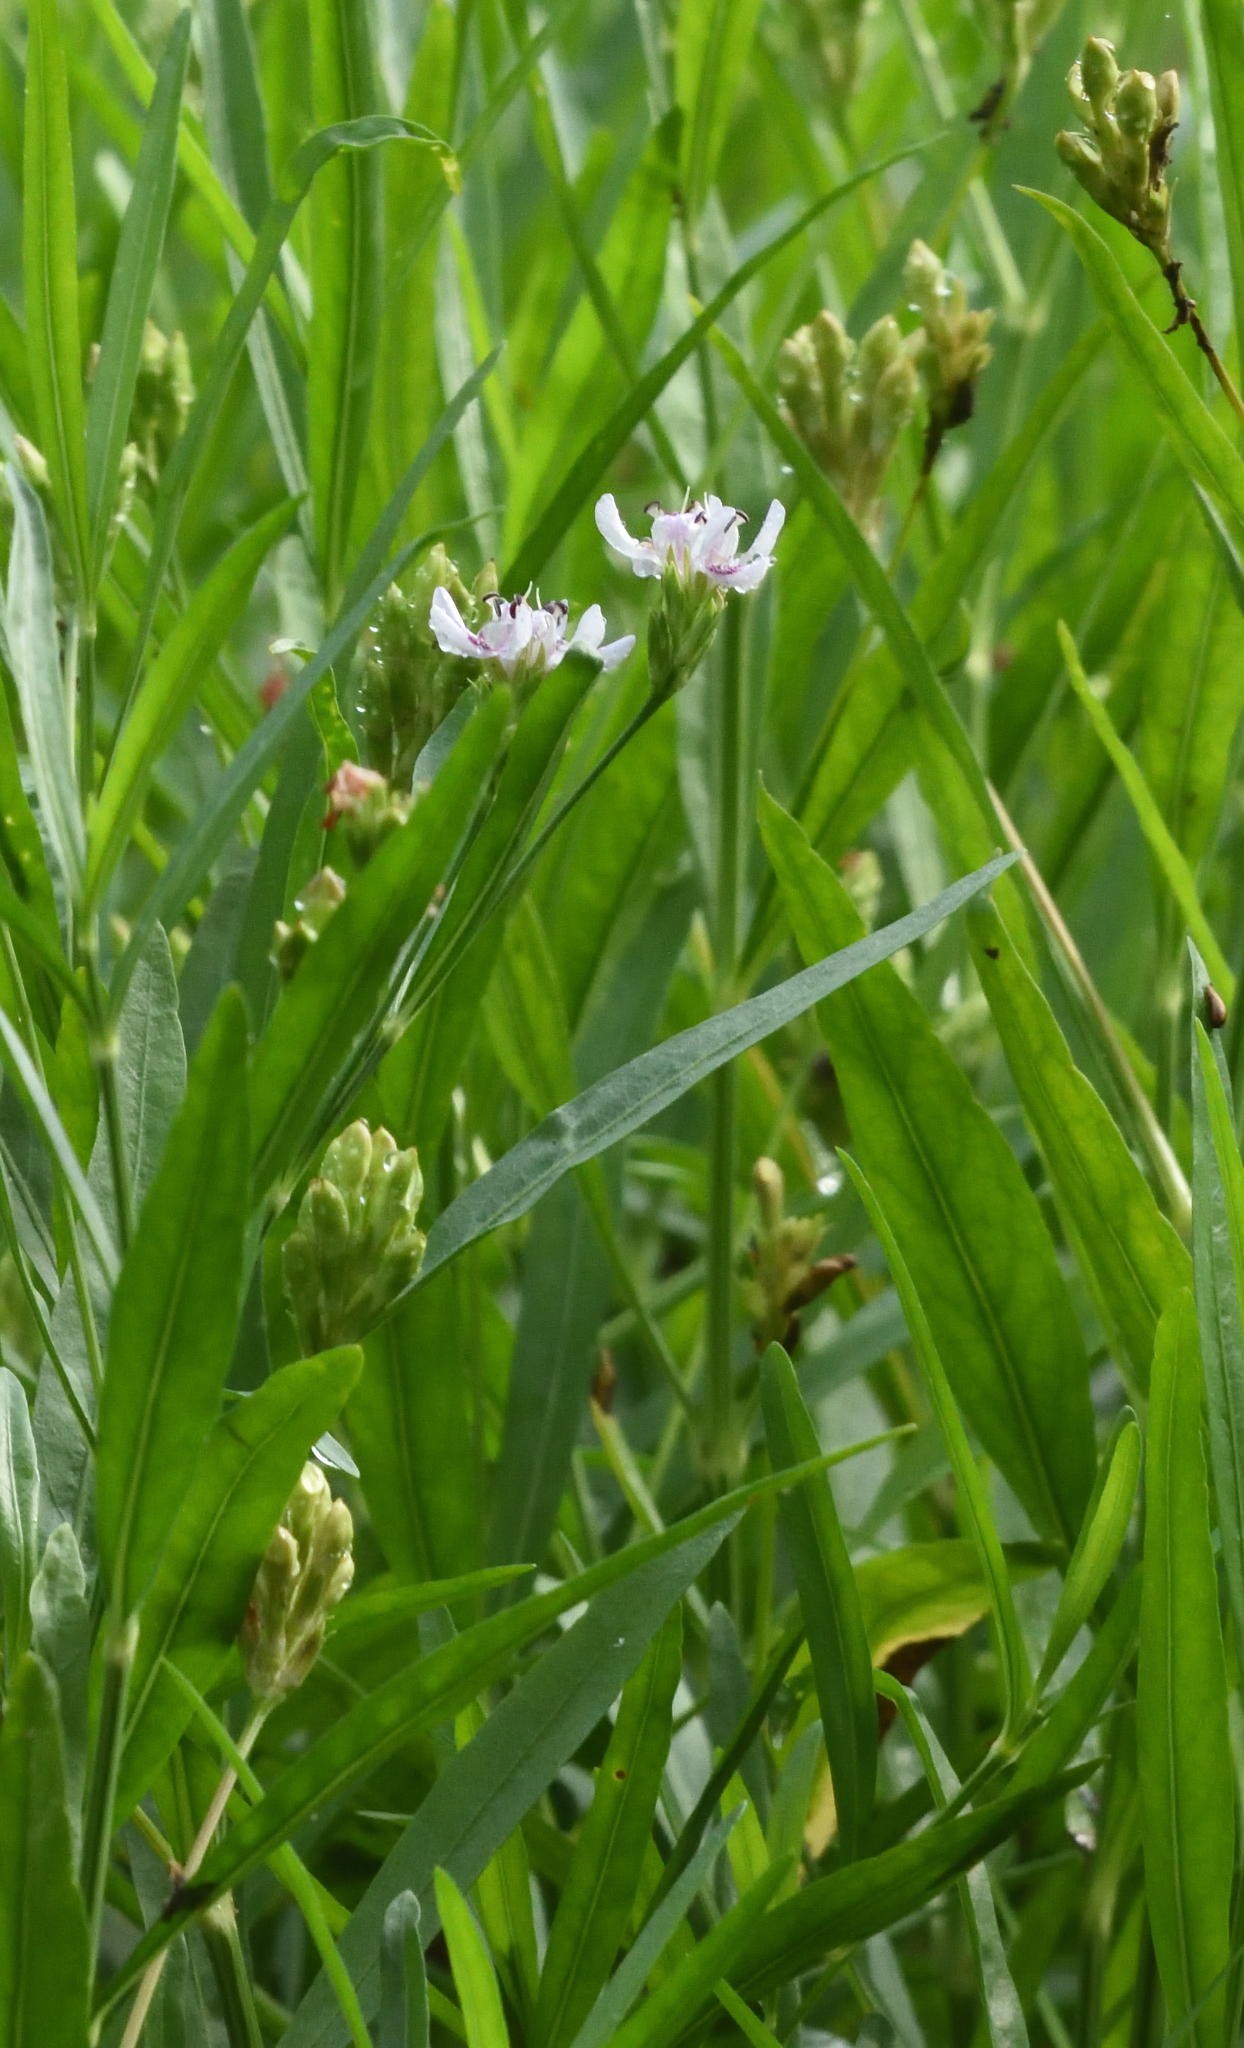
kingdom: Plantae
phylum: Tracheophyta
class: Magnoliopsida
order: Lamiales
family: Acanthaceae
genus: Dianthera
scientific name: Dianthera americana
